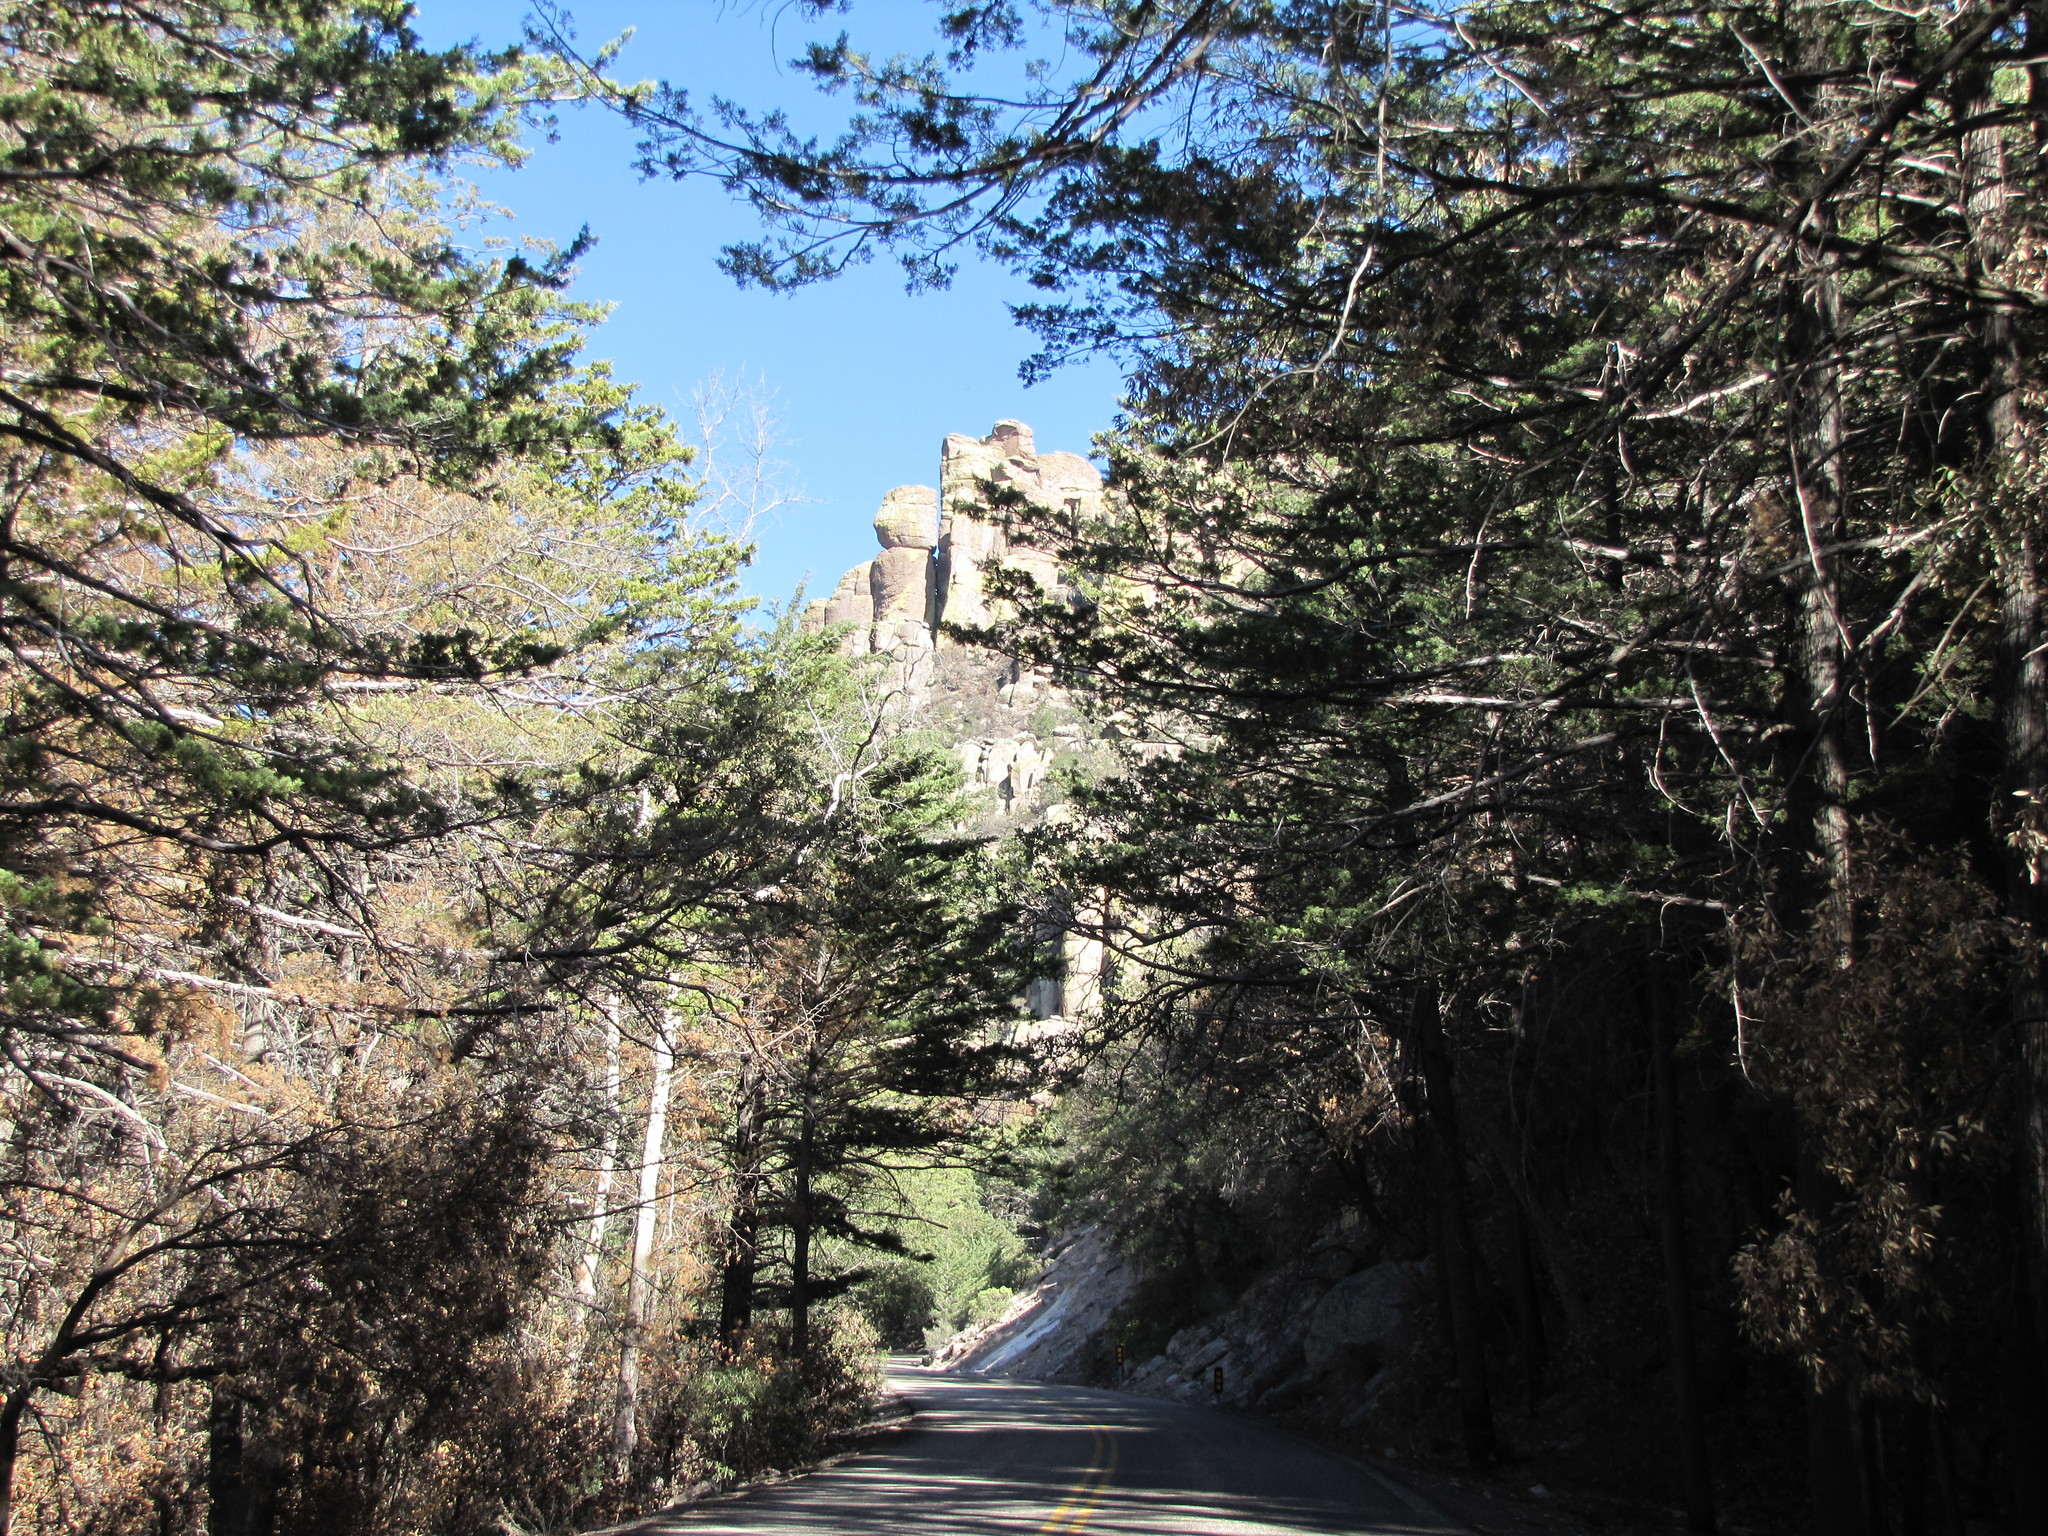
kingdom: Plantae
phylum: Tracheophyta
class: Pinopsida
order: Pinales
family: Cupressaceae
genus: Cupressus
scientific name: Cupressus arizonica
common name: Arizona cypress
